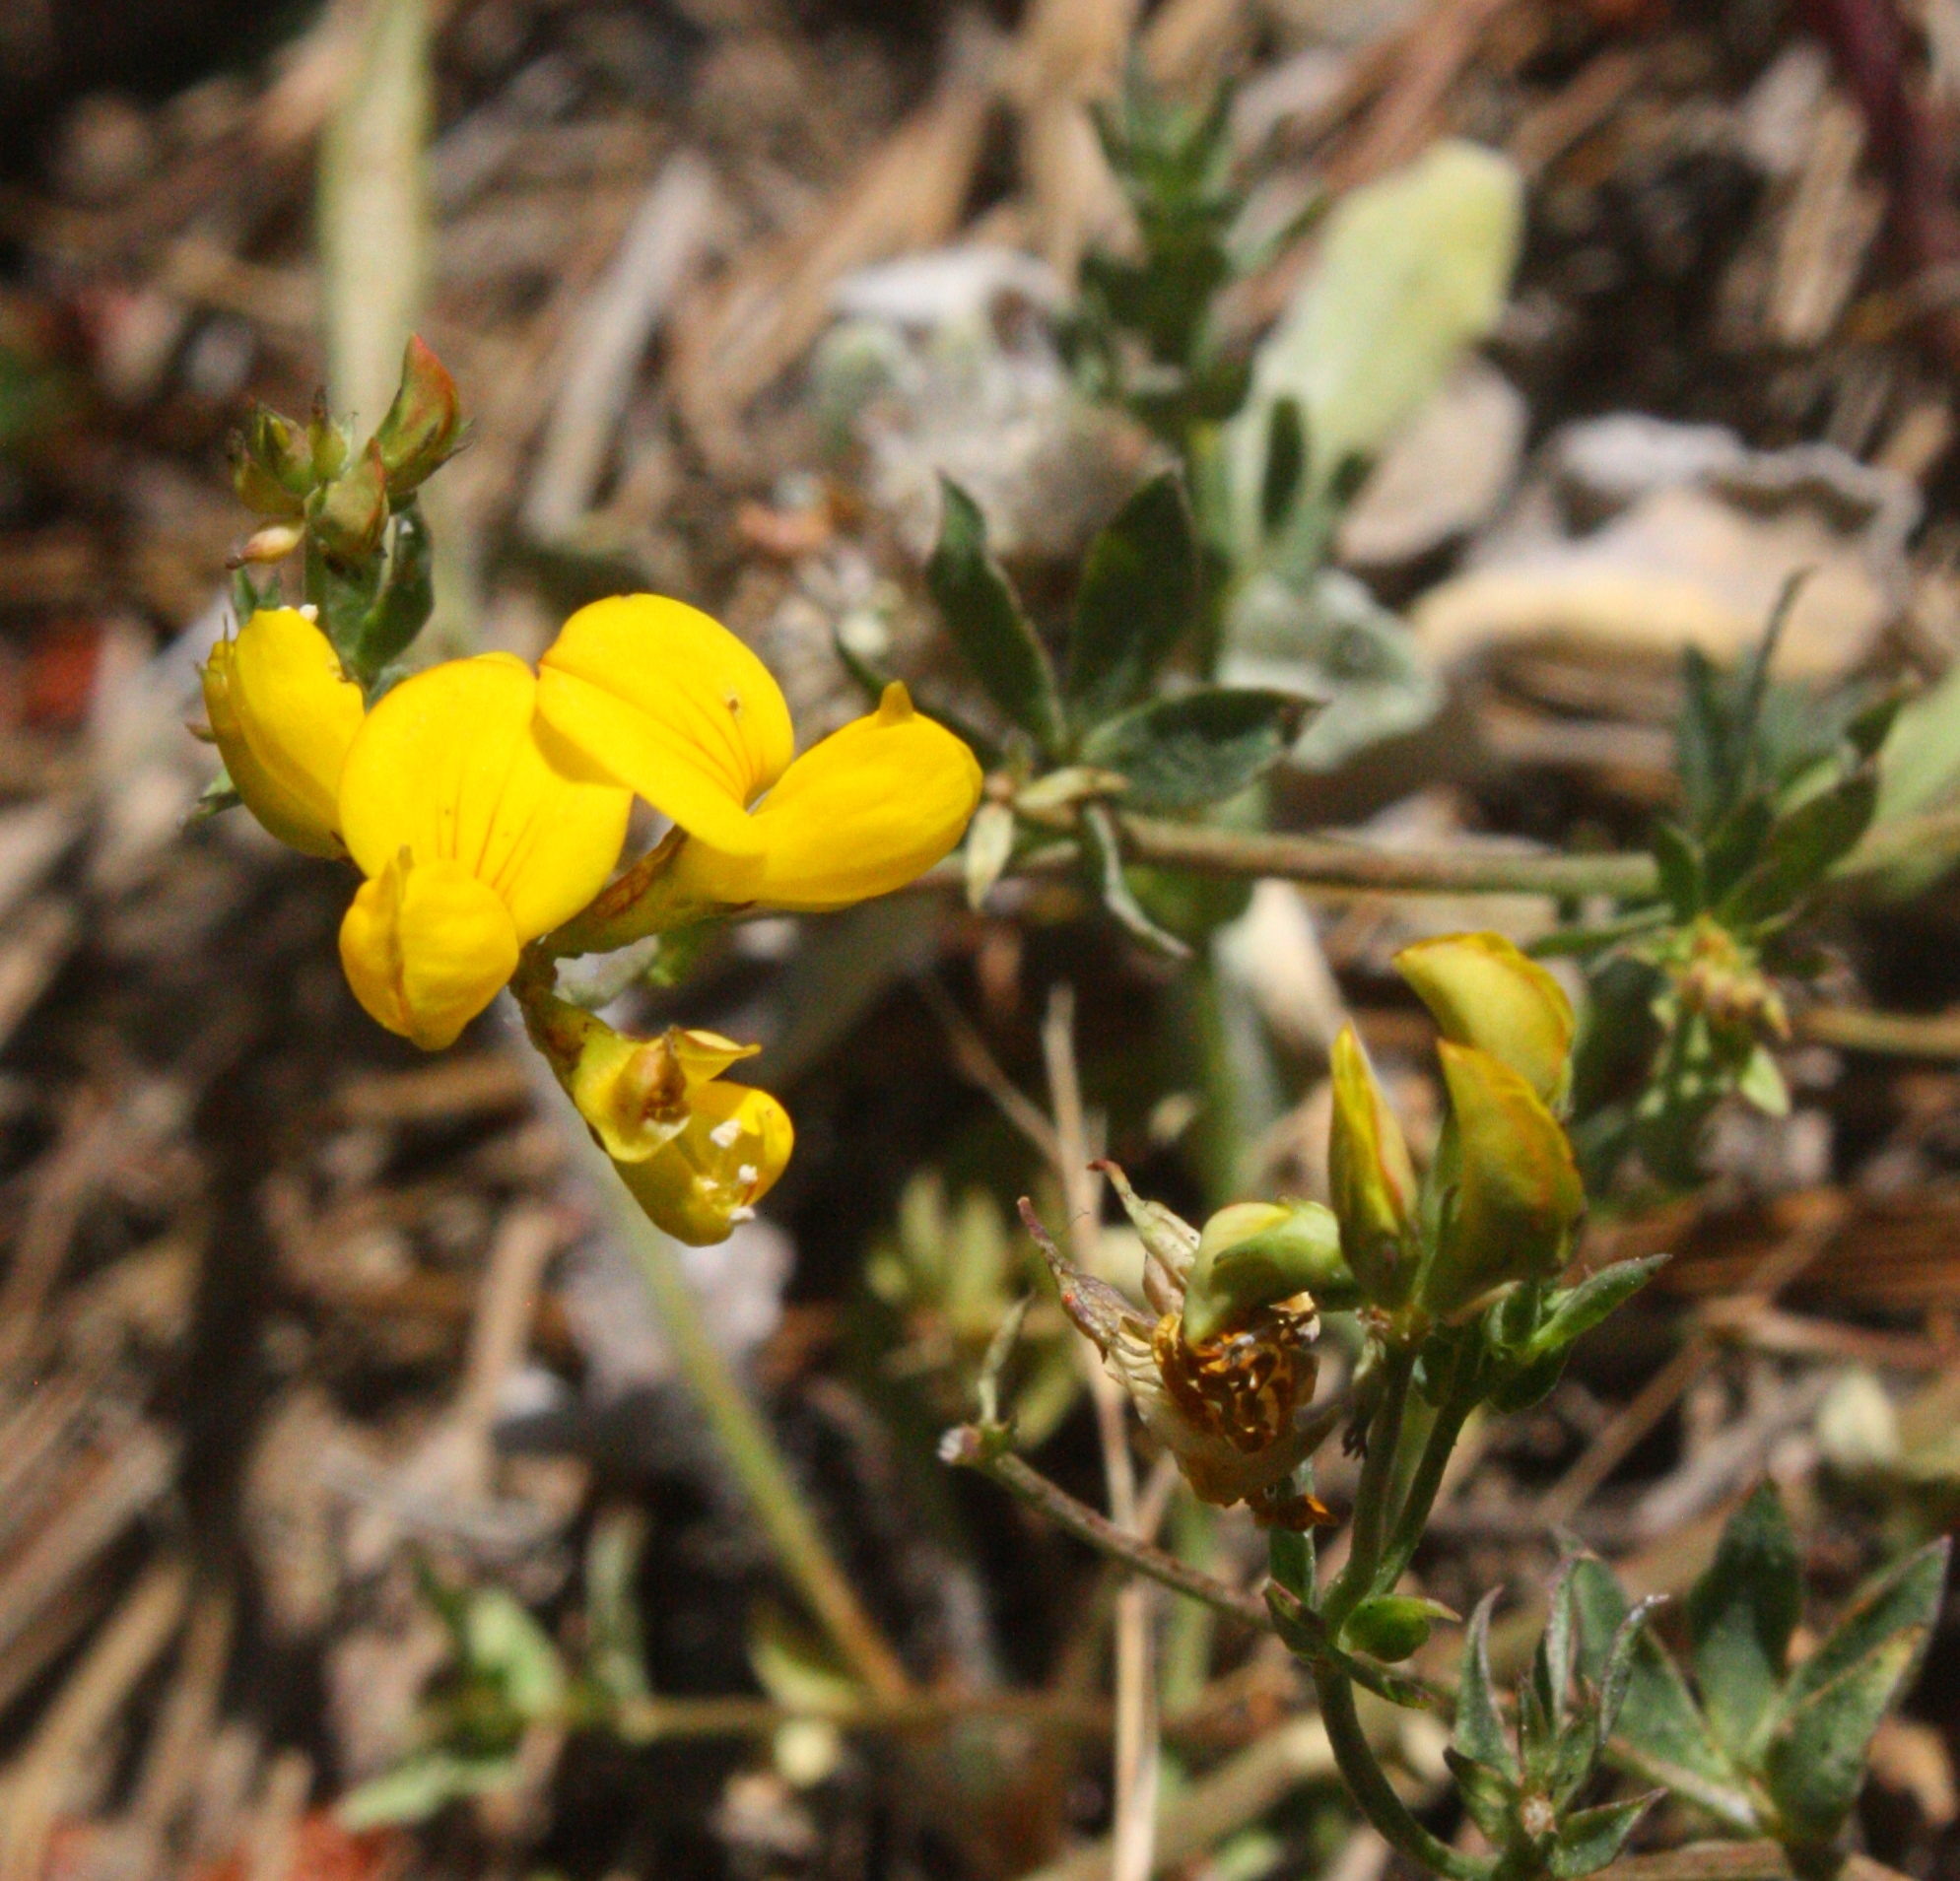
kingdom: Plantae
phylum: Tracheophyta
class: Magnoliopsida
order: Fabales
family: Fabaceae
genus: Lotus
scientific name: Lotus corniculatus
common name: Common bird's-foot-trefoil
